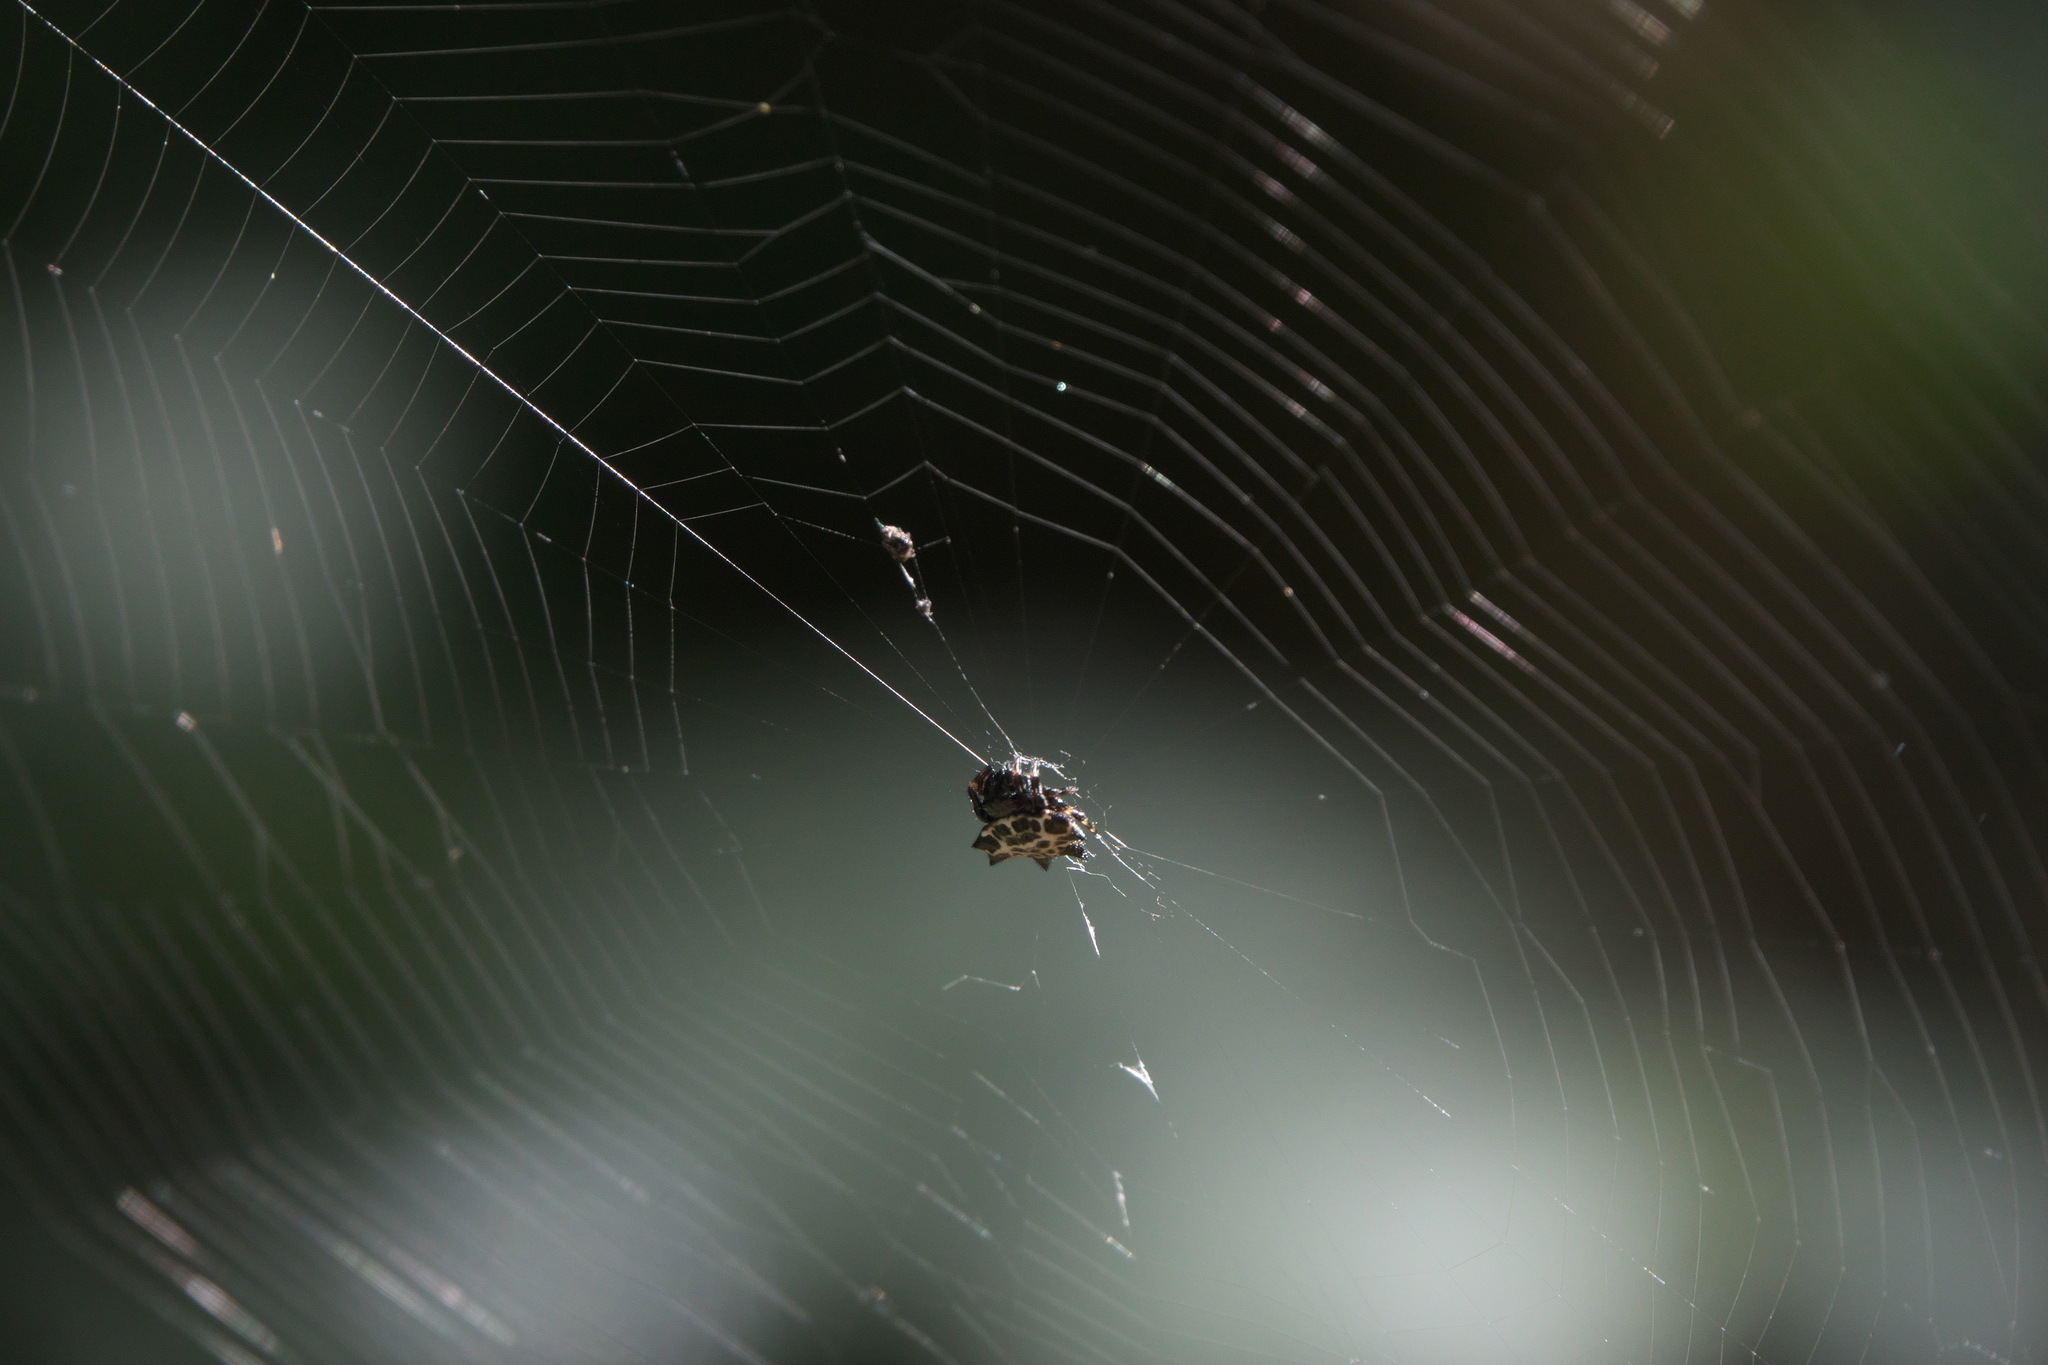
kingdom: Animalia
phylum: Arthropoda
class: Arachnida
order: Araneae
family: Araneidae
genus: Gasteracantha
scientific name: Gasteracantha cancriformis
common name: Orb weavers
